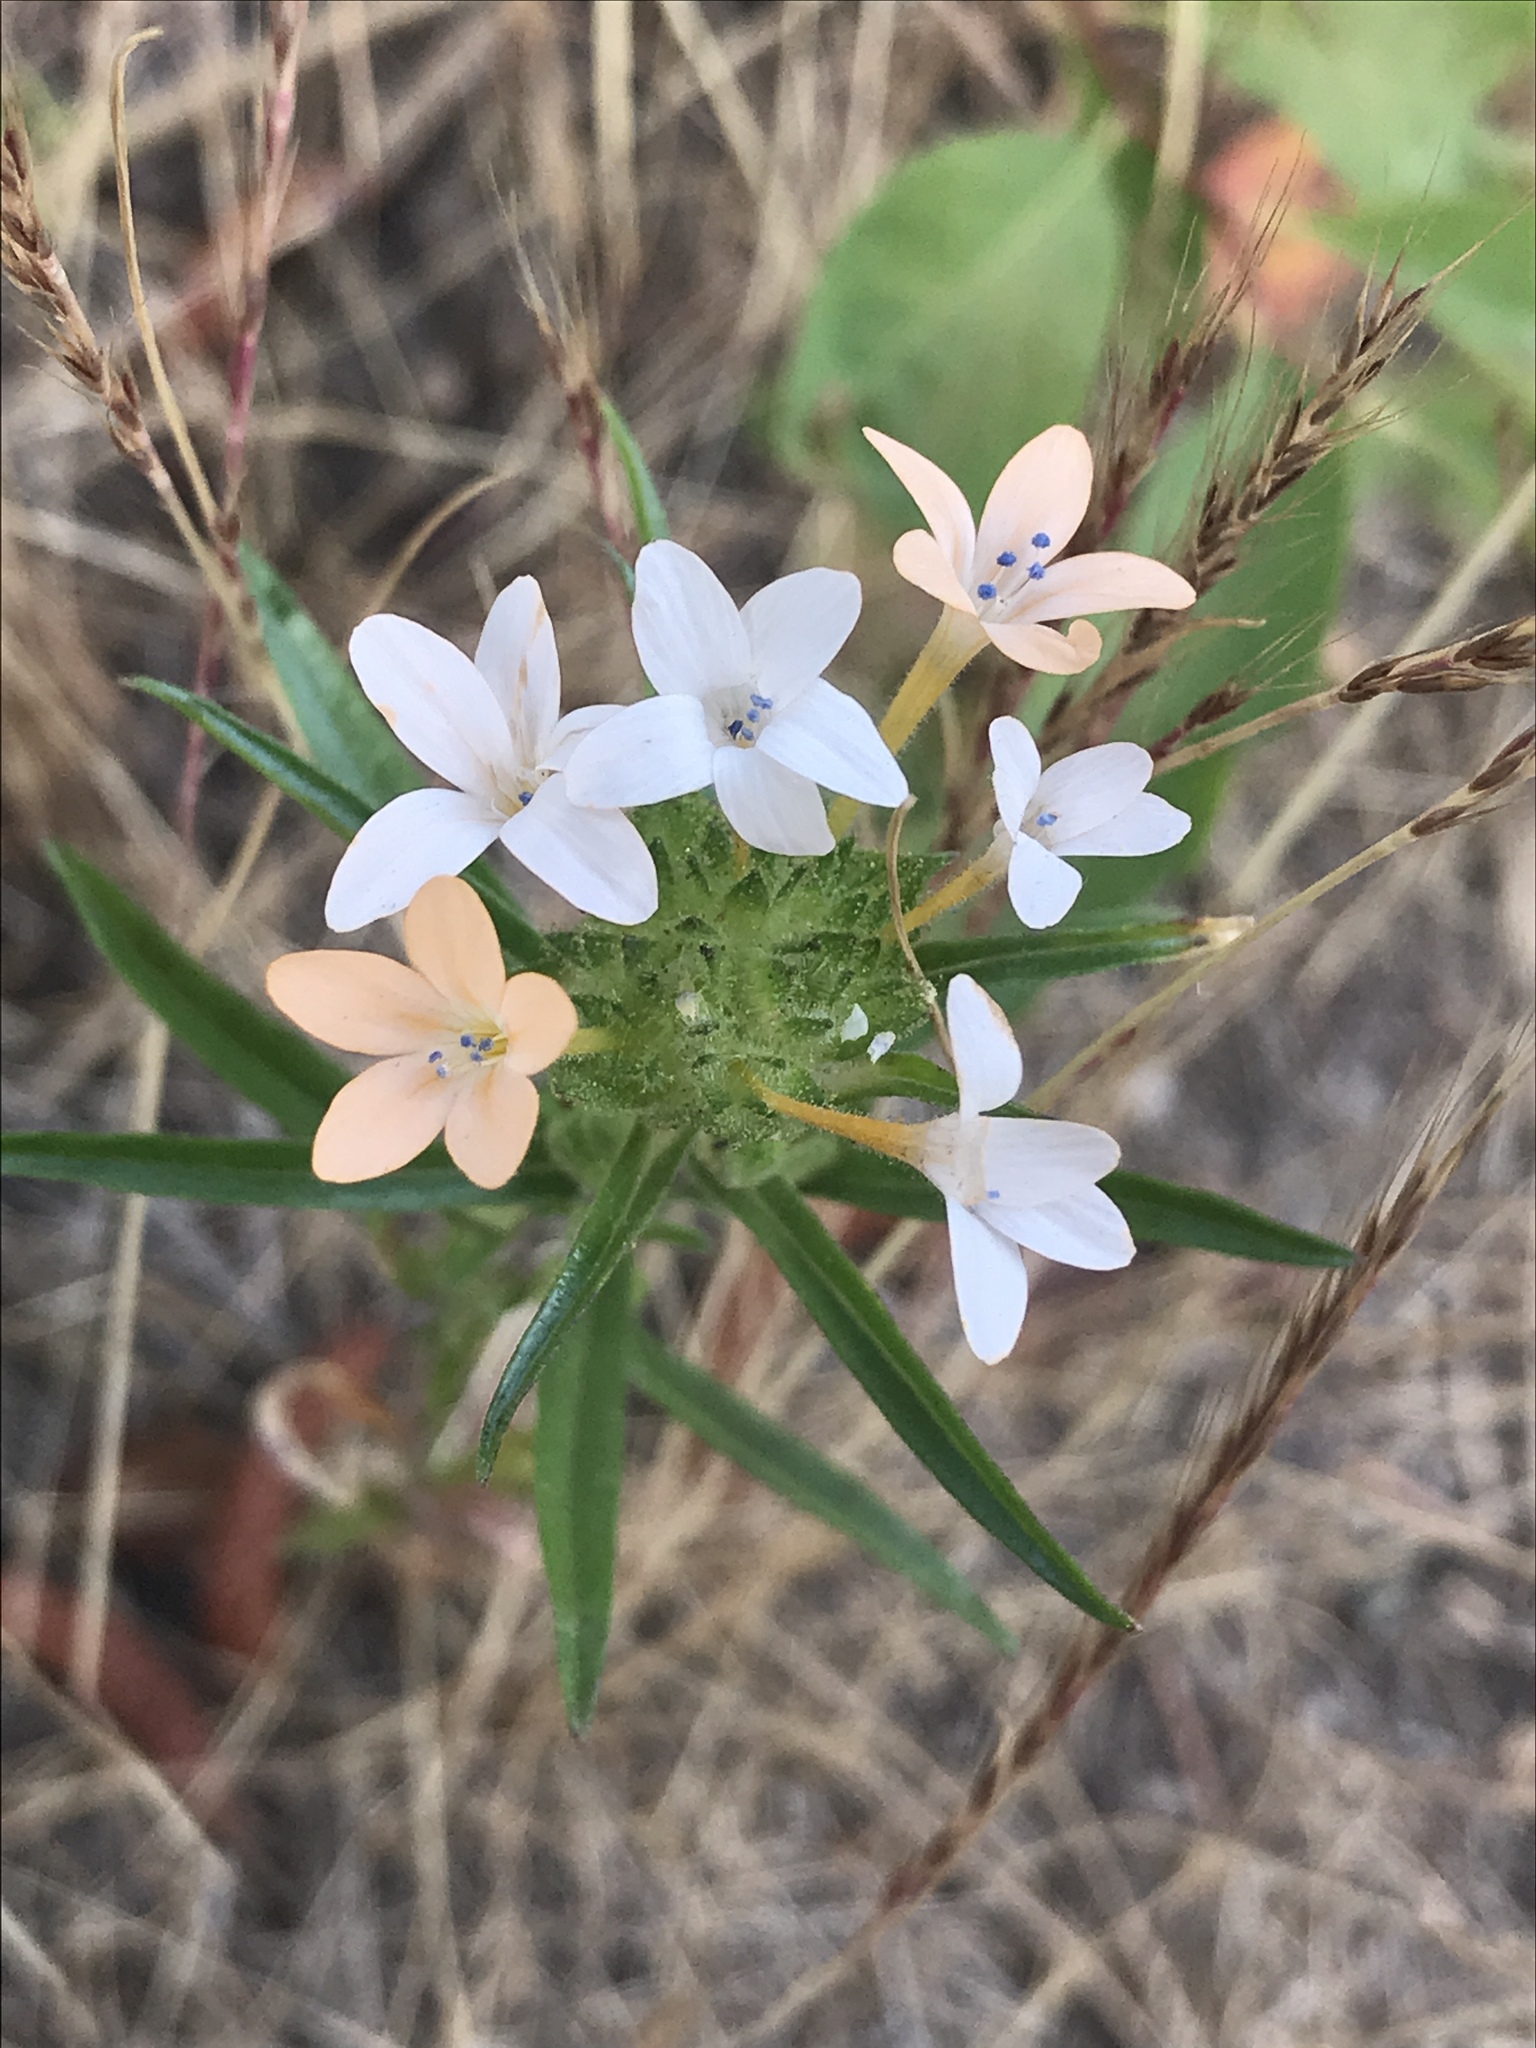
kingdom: Plantae
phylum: Tracheophyta
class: Magnoliopsida
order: Ericales
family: Polemoniaceae
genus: Collomia
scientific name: Collomia grandiflora
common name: California strawflower
